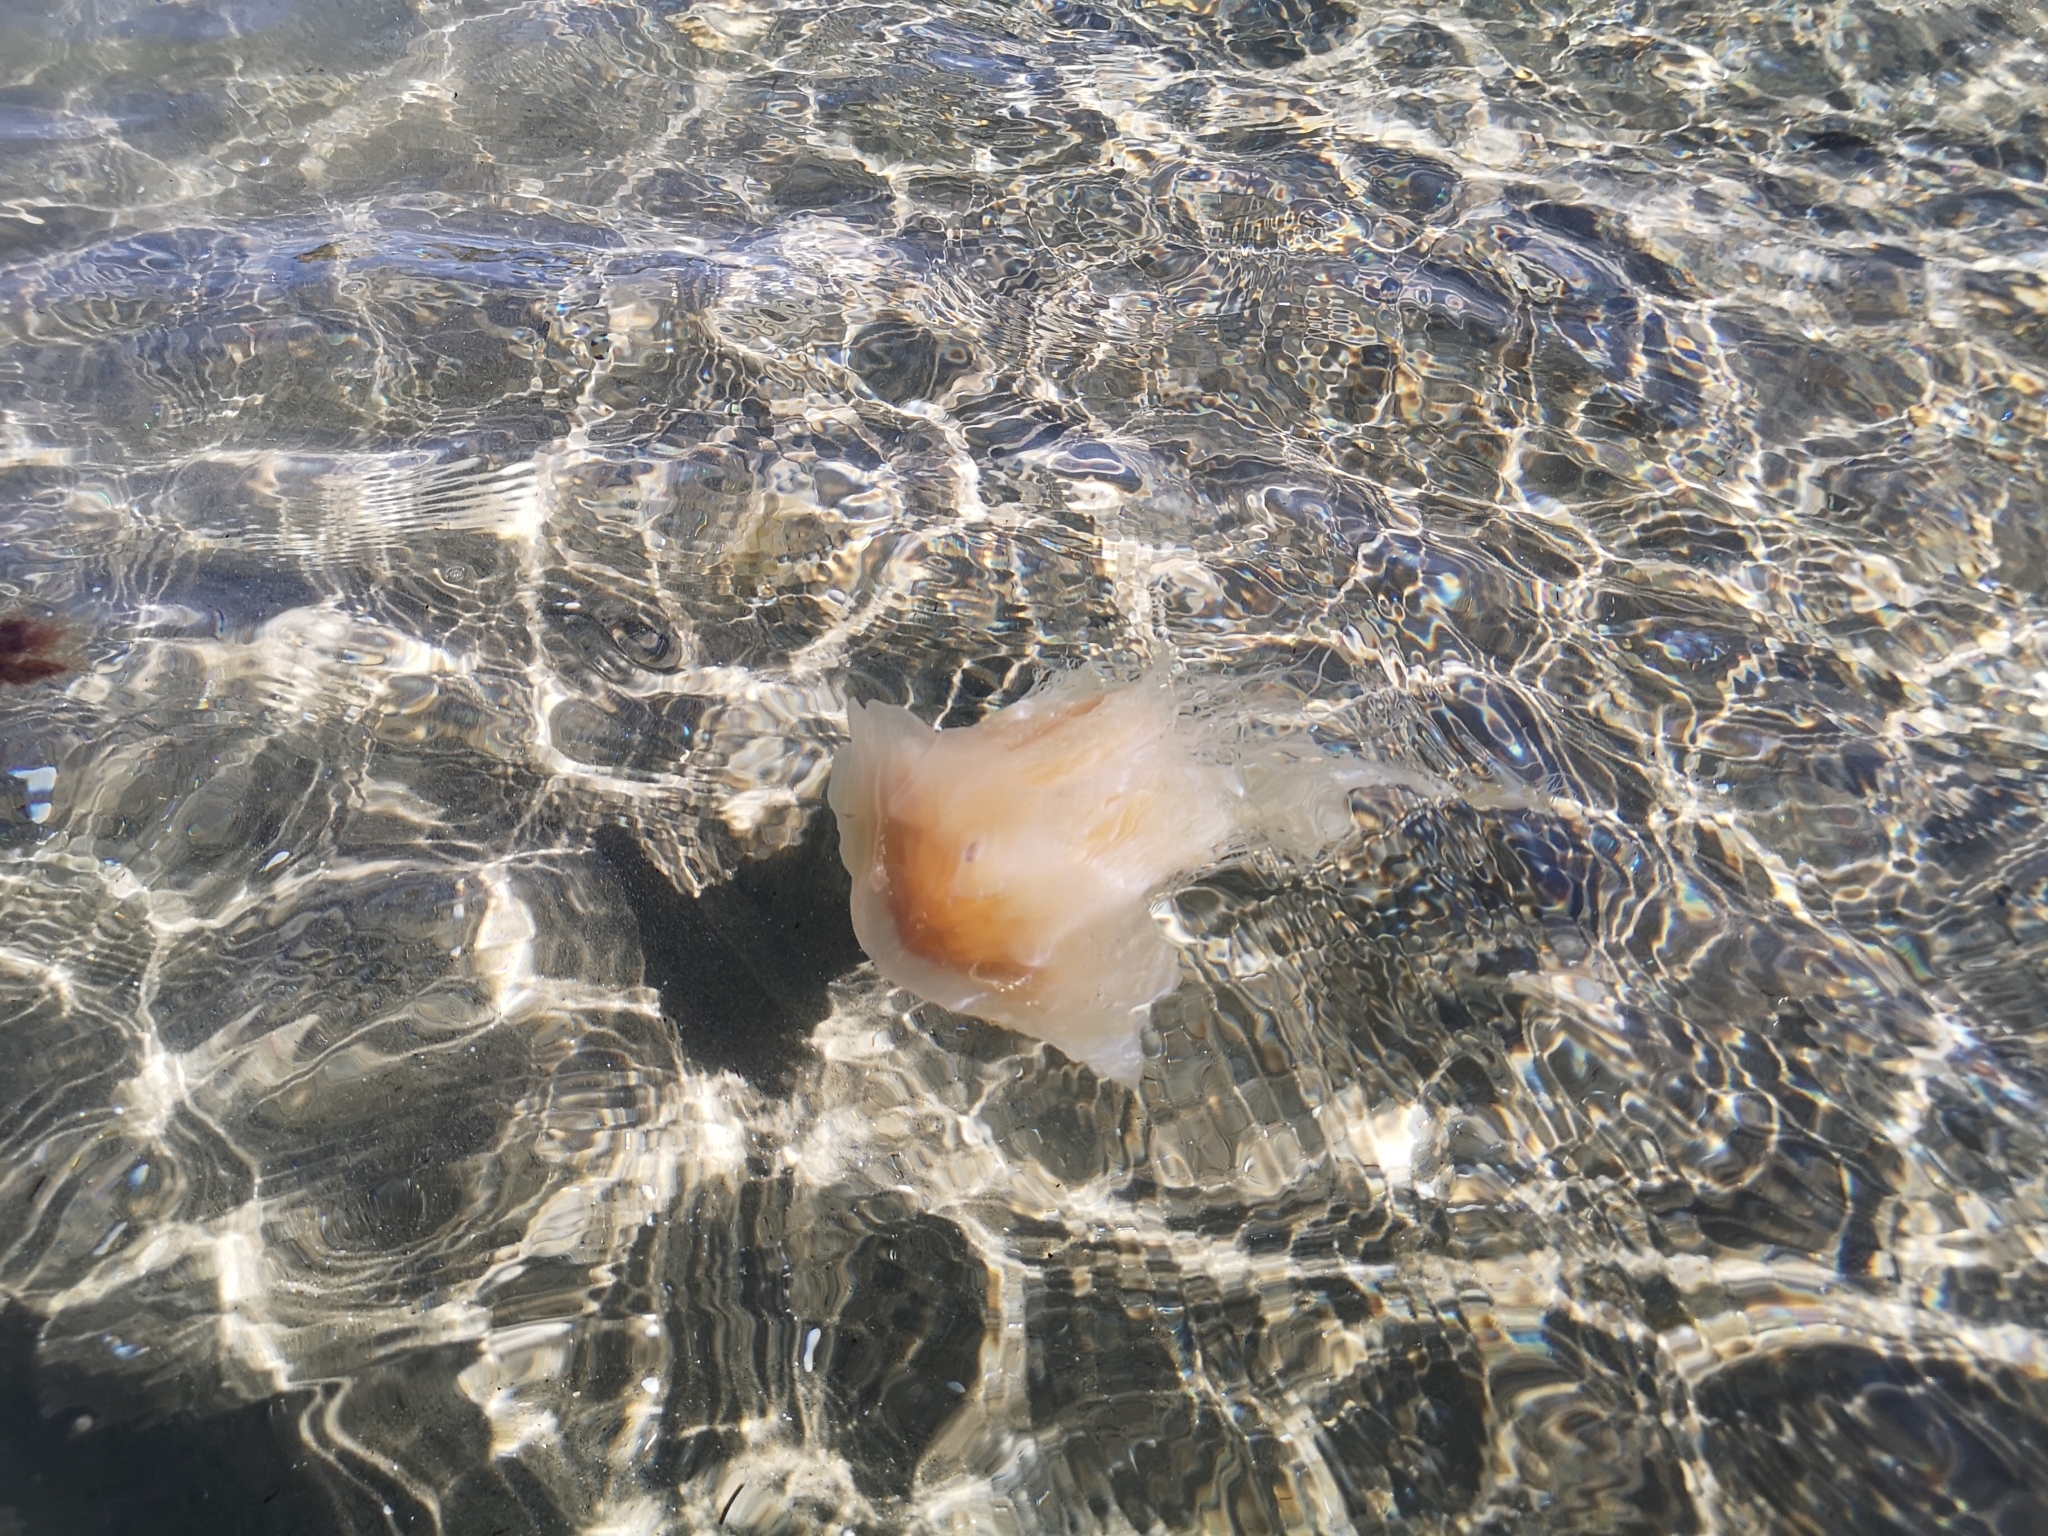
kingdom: Animalia
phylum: Cnidaria
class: Scyphozoa
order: Semaeostomeae
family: Cyaneidae
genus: Cyanea
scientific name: Cyanea capillata
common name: Lion's mane jellyfish
